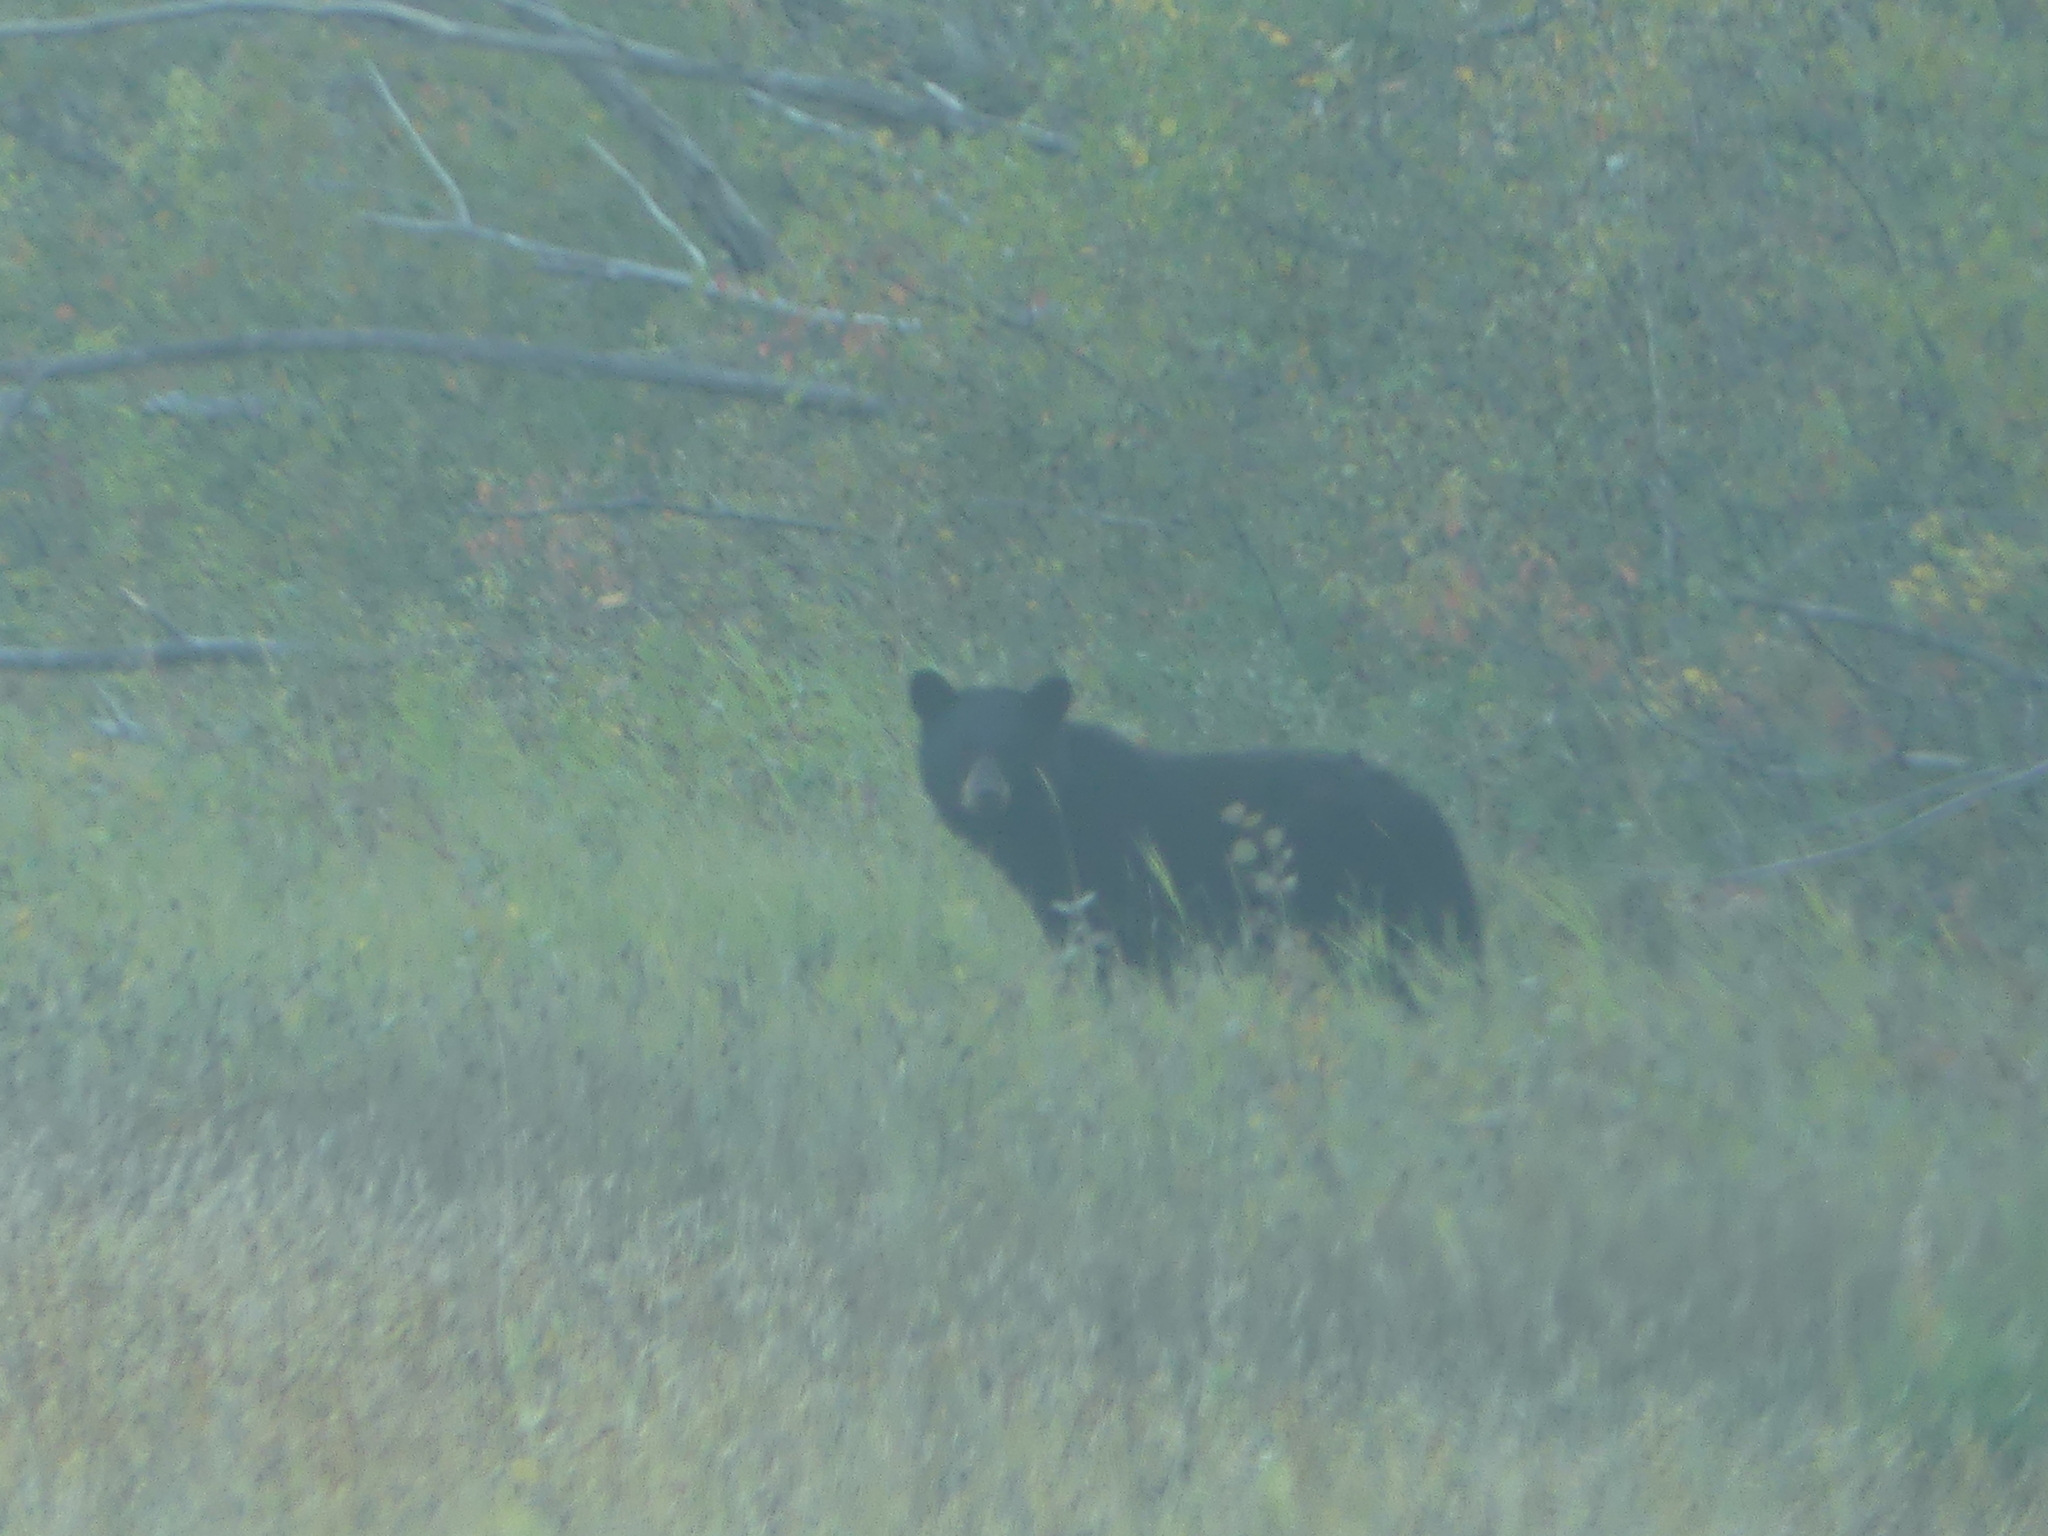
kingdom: Animalia
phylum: Chordata
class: Mammalia
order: Carnivora
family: Ursidae
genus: Ursus
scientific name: Ursus americanus
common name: American black bear
